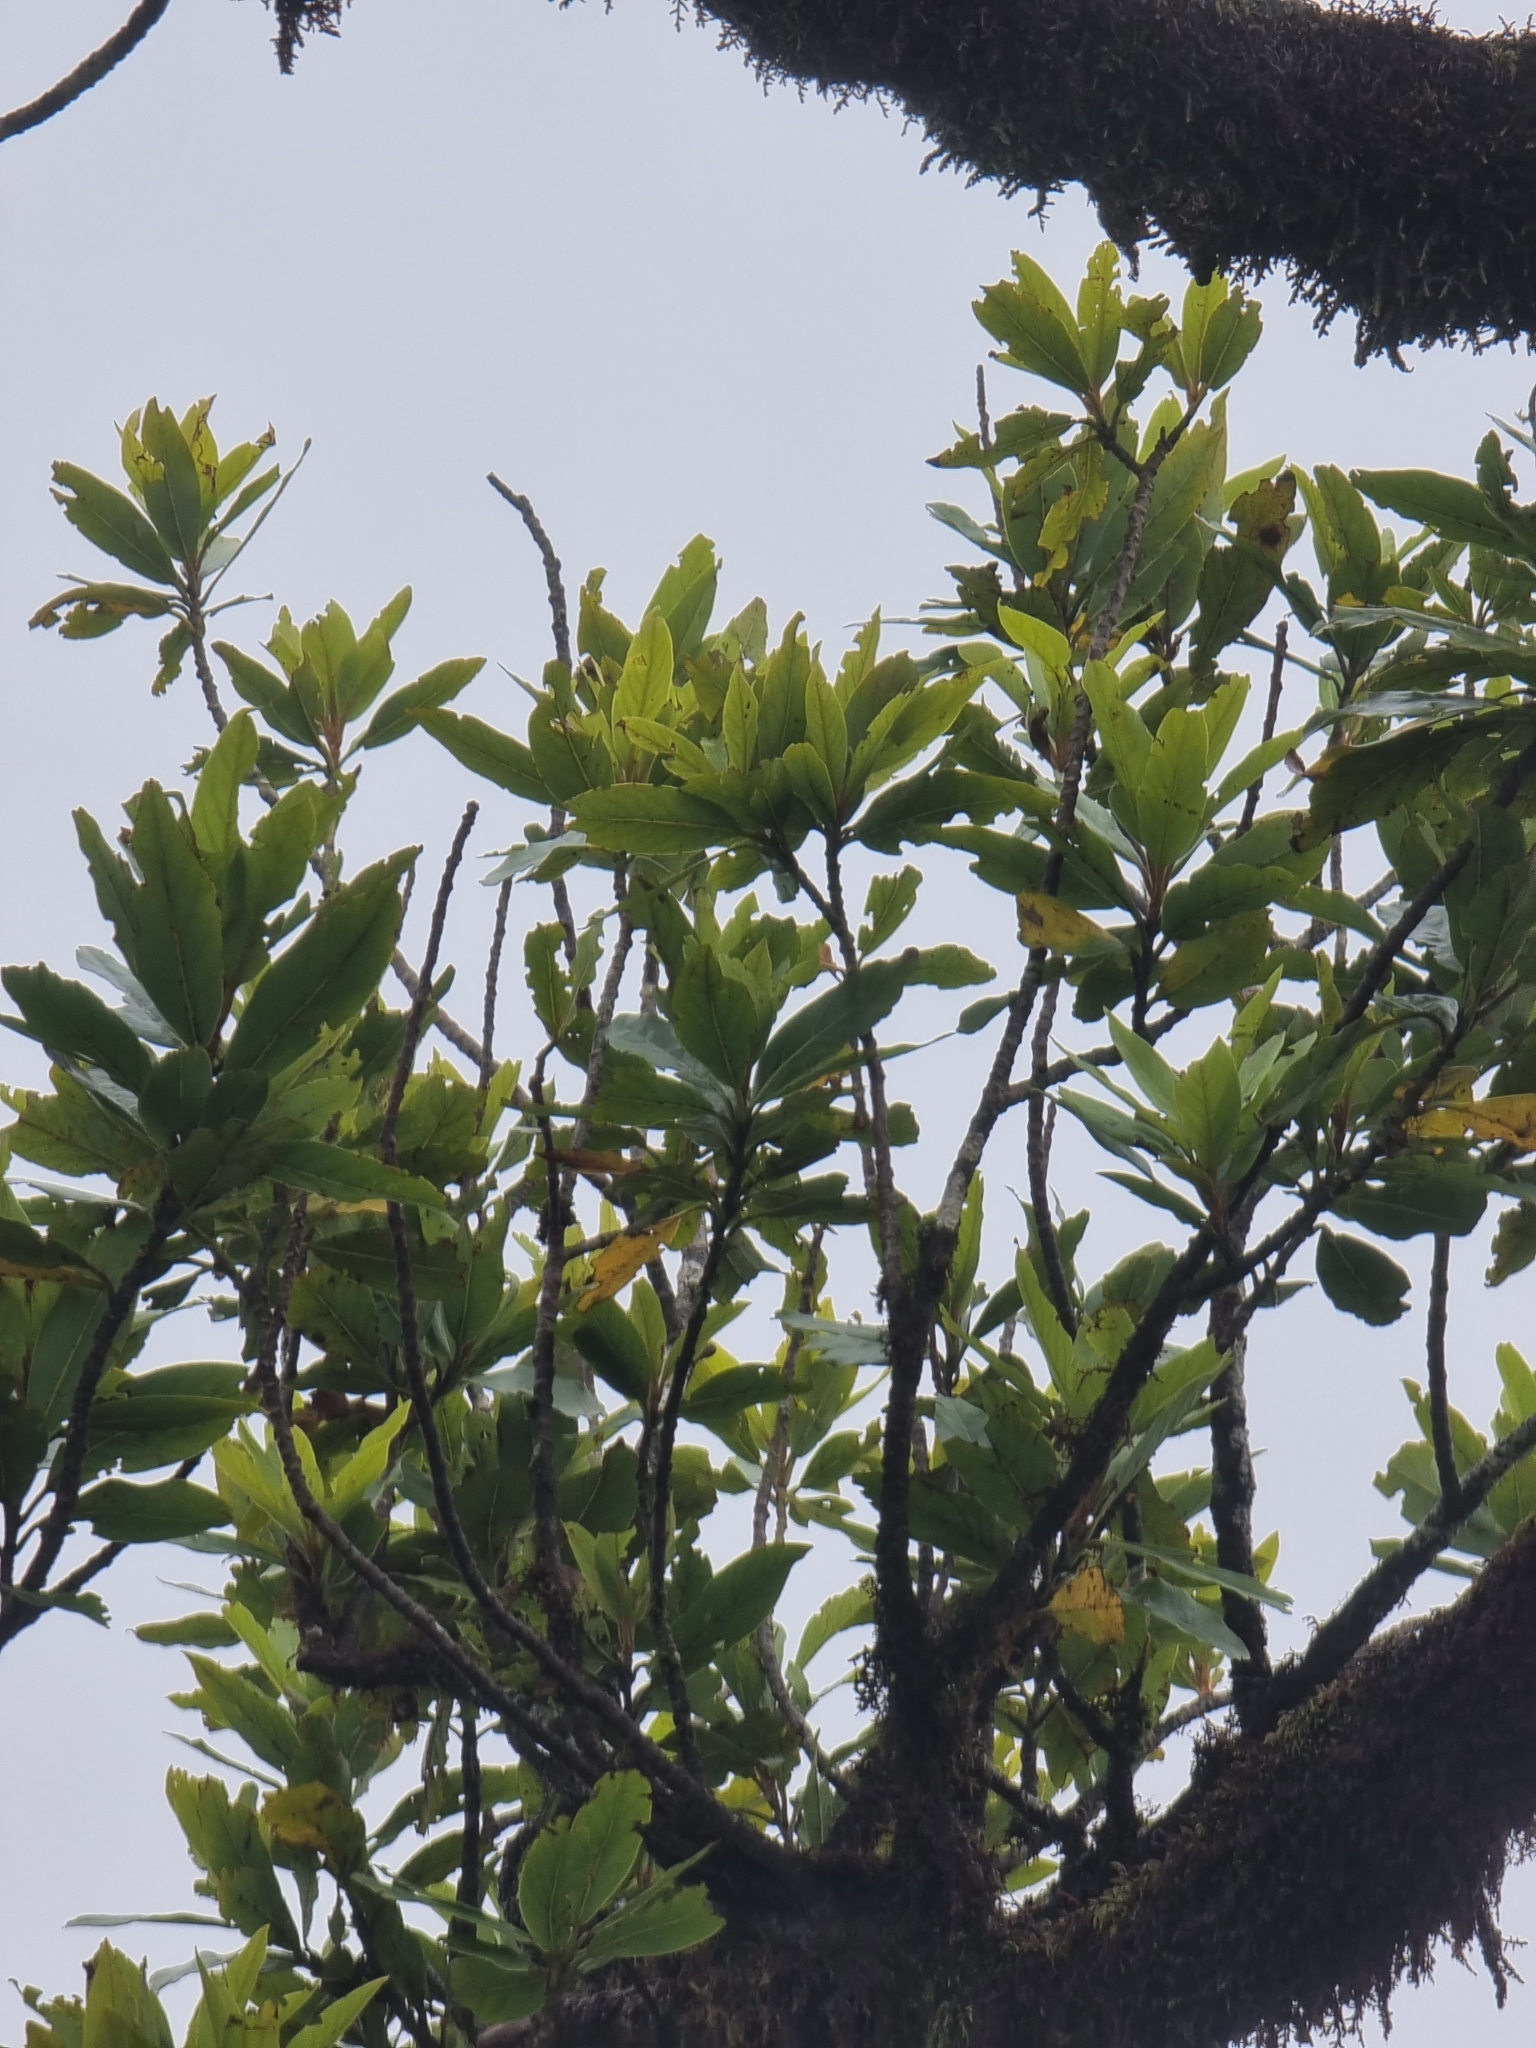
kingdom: Plantae
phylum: Tracheophyta
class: Magnoliopsida
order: Laurales
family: Lauraceae
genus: Mespilodaphne
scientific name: Mespilodaphne foetens
